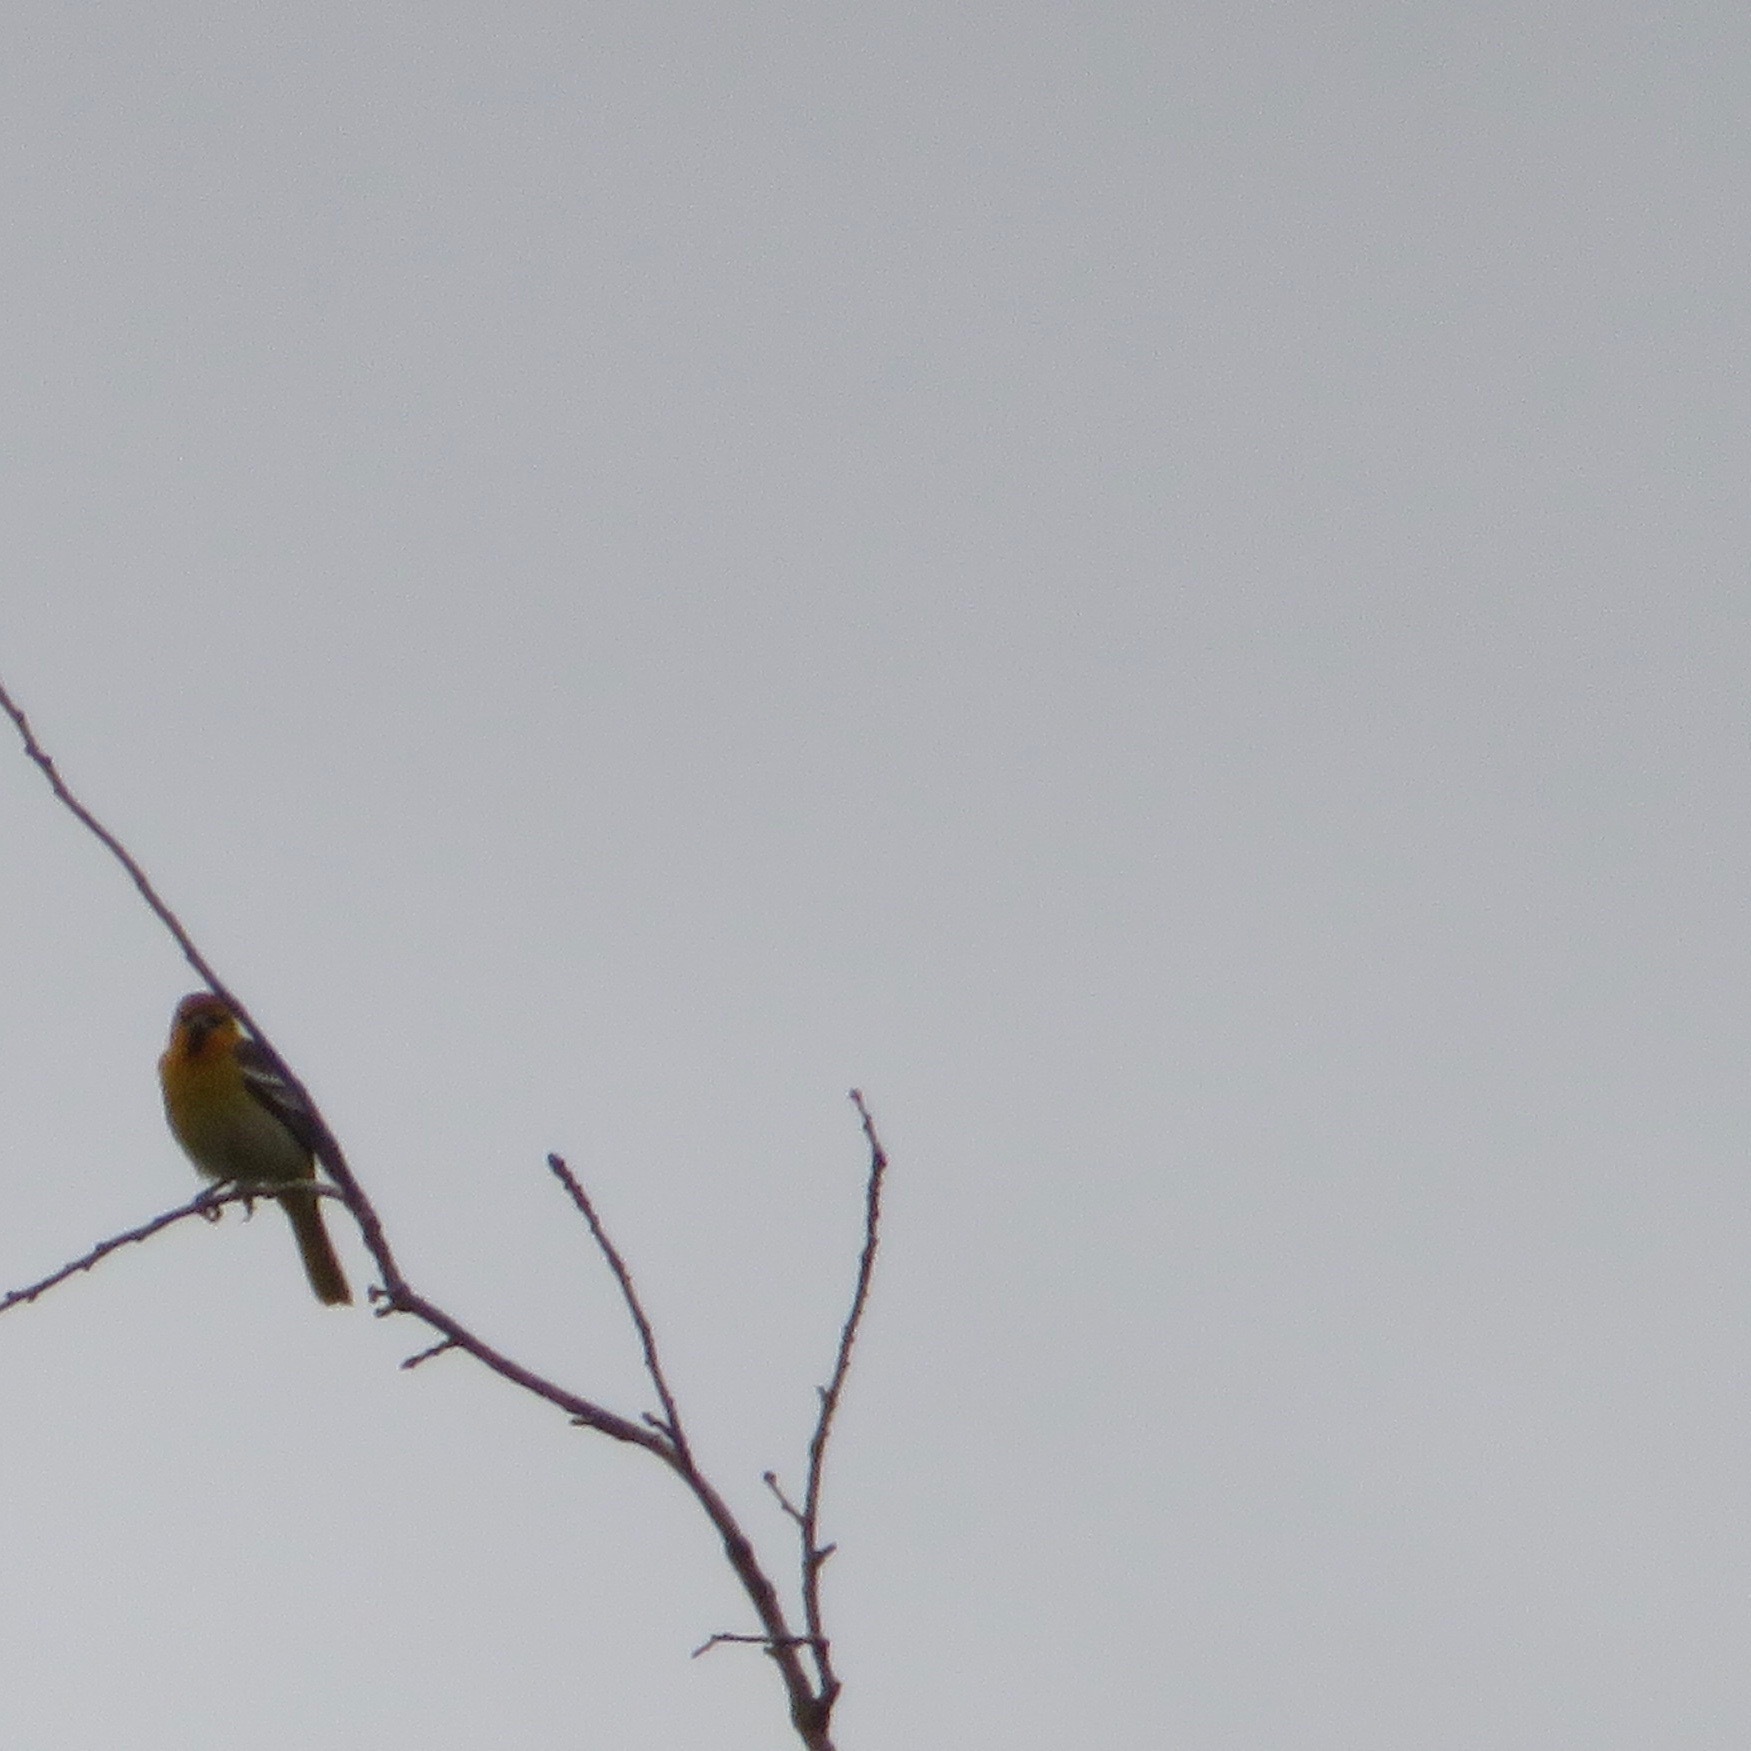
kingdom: Animalia
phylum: Chordata
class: Aves
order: Passeriformes
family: Icteridae
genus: Icterus
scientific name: Icterus bullockii
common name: Bullock's oriole
